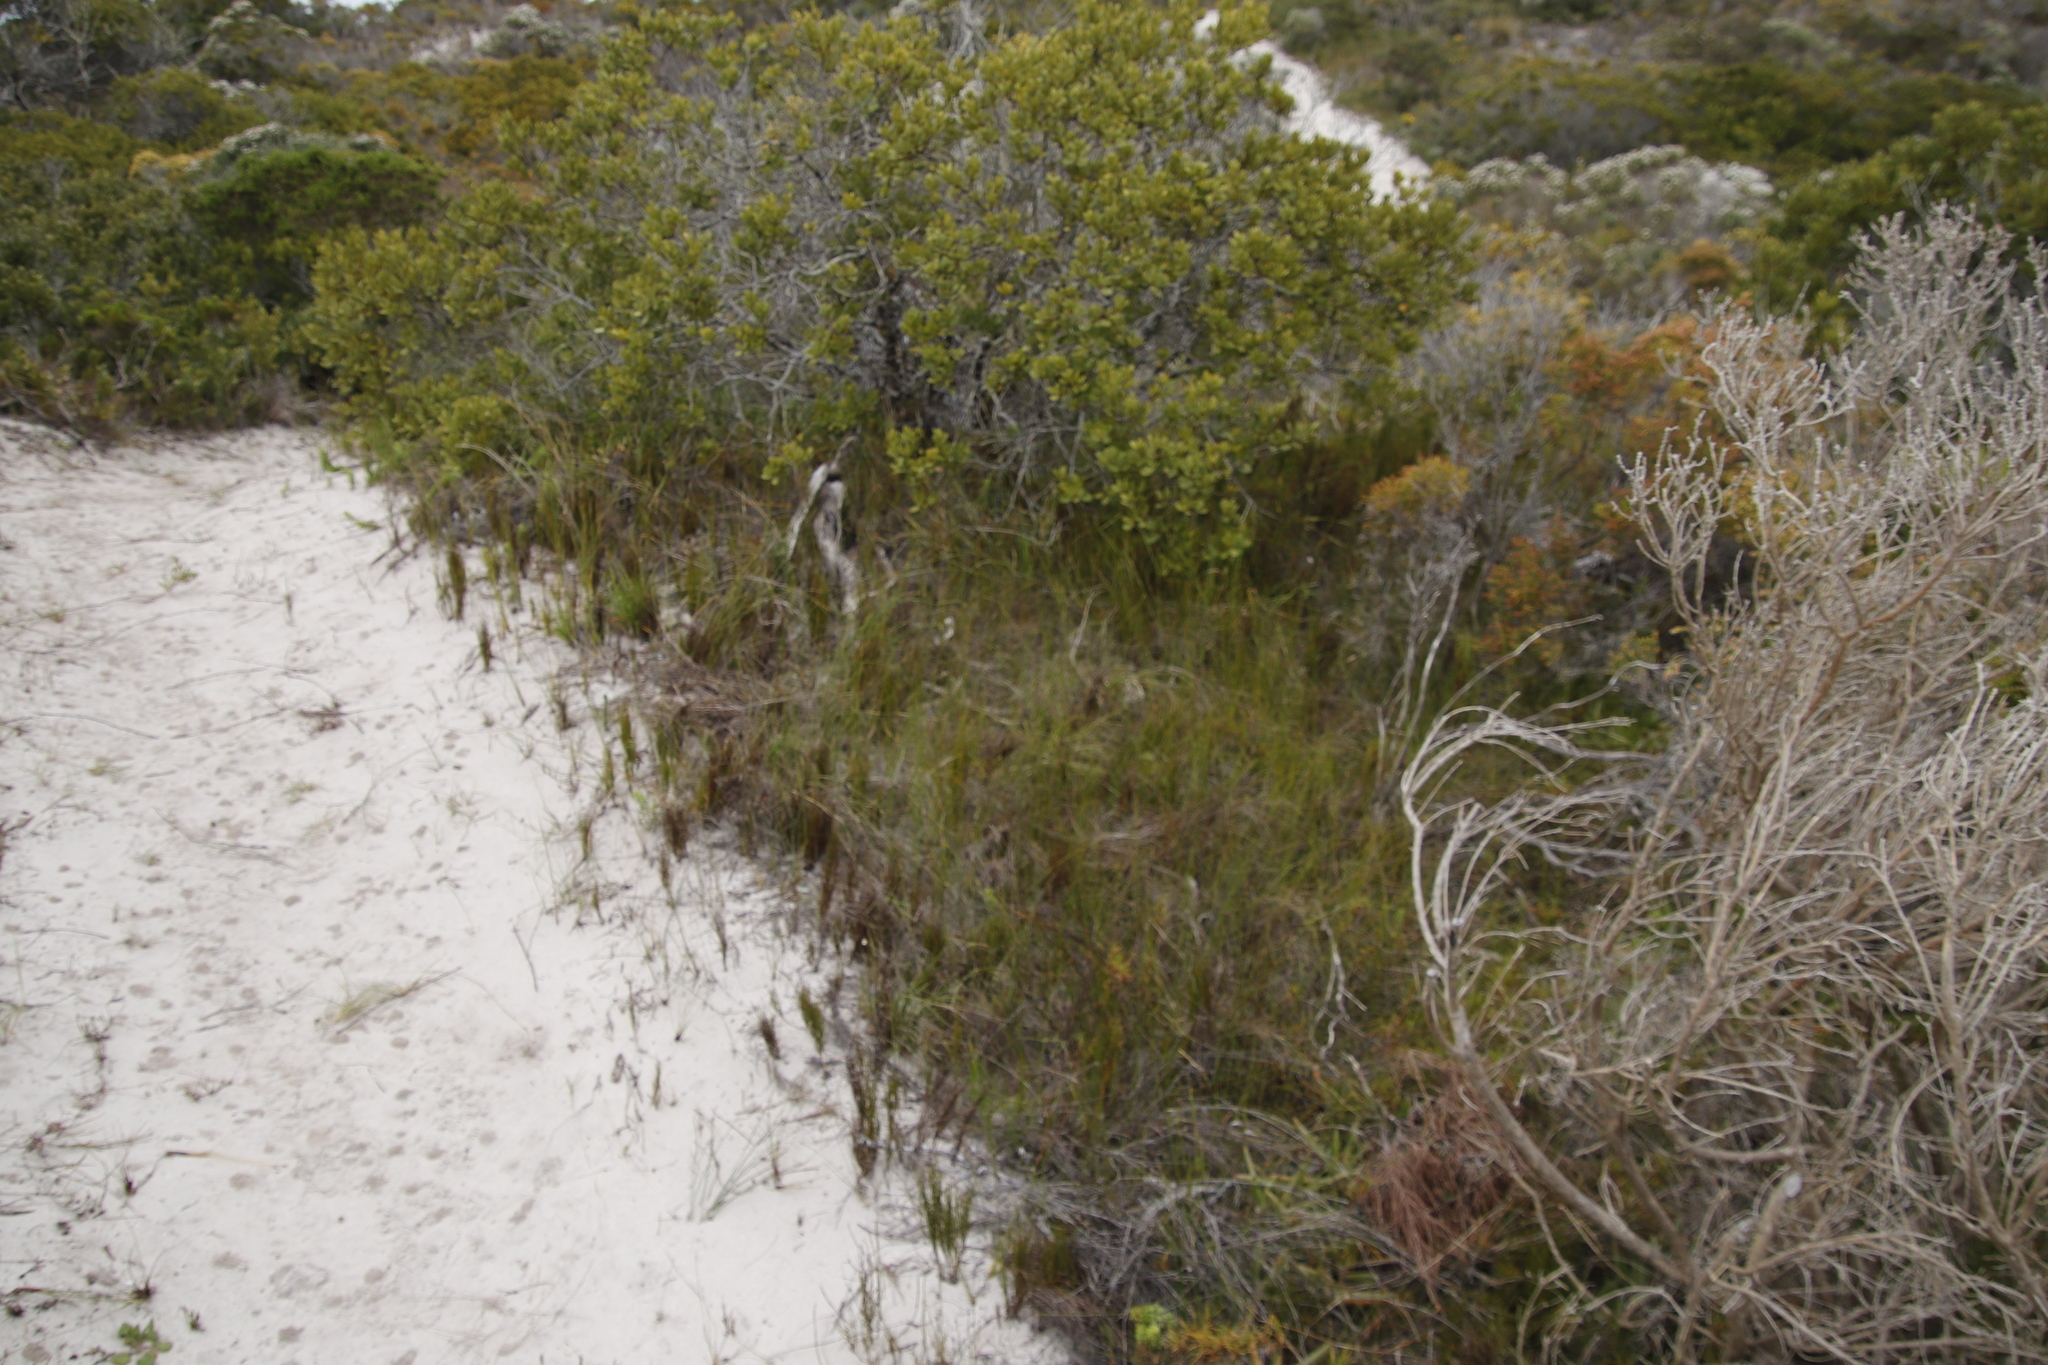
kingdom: Plantae
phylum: Tracheophyta
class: Liliopsida
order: Poales
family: Restionaceae
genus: Restio
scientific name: Restio eleocharis
